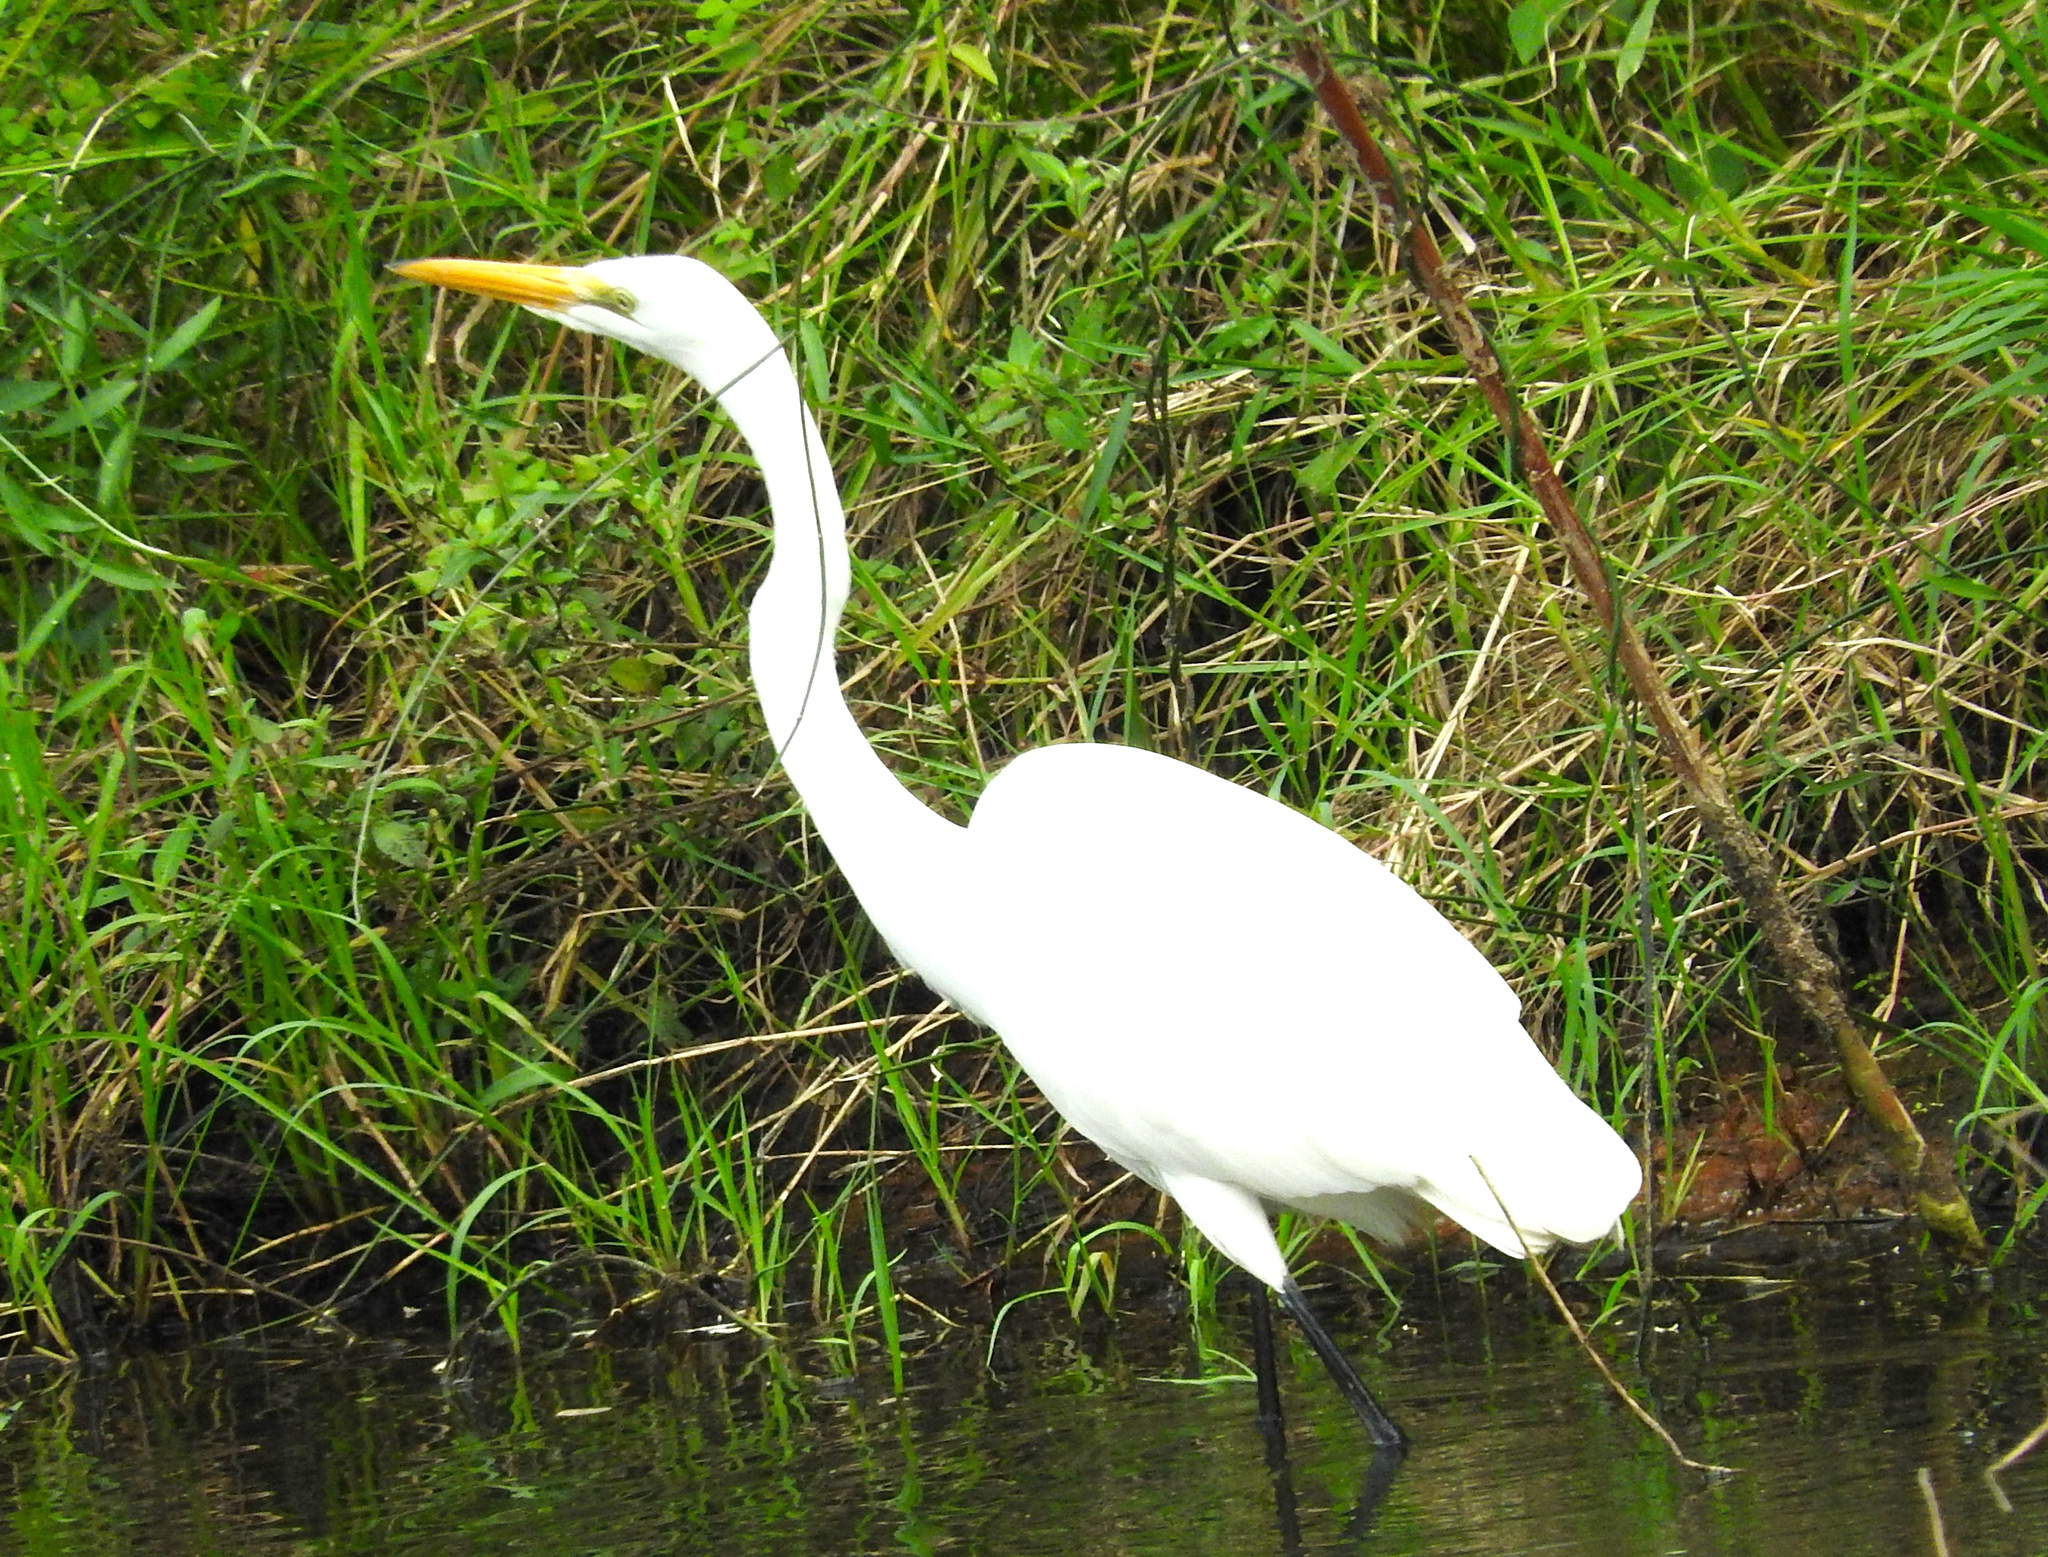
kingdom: Animalia
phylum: Chordata
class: Aves
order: Pelecaniformes
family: Ardeidae
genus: Ardea
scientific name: Ardea alba
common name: Great egret
